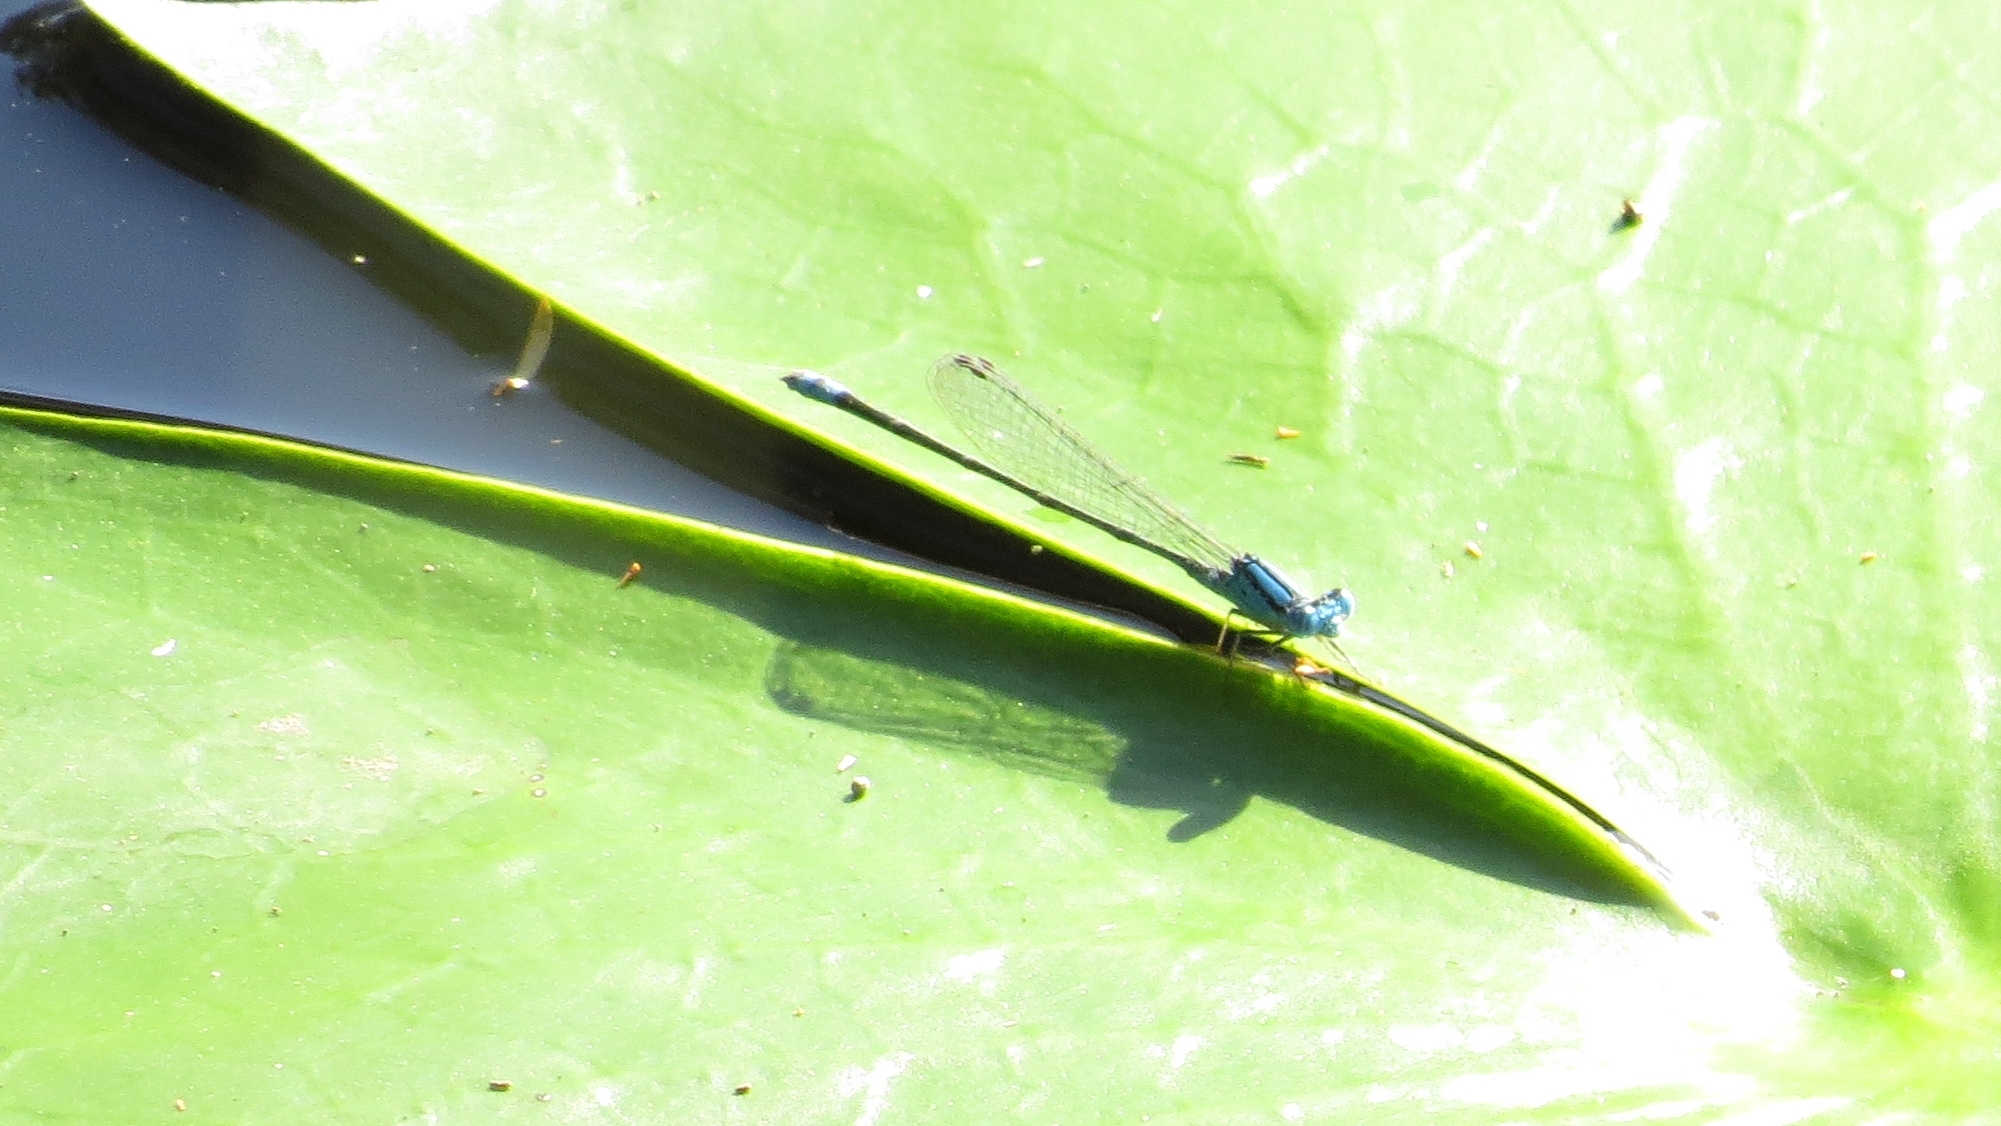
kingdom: Animalia
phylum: Arthropoda
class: Insecta
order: Odonata
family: Coenagrionidae
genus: Pseudagrion
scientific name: Pseudagrion microcephalum
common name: Blue riverdamsel
